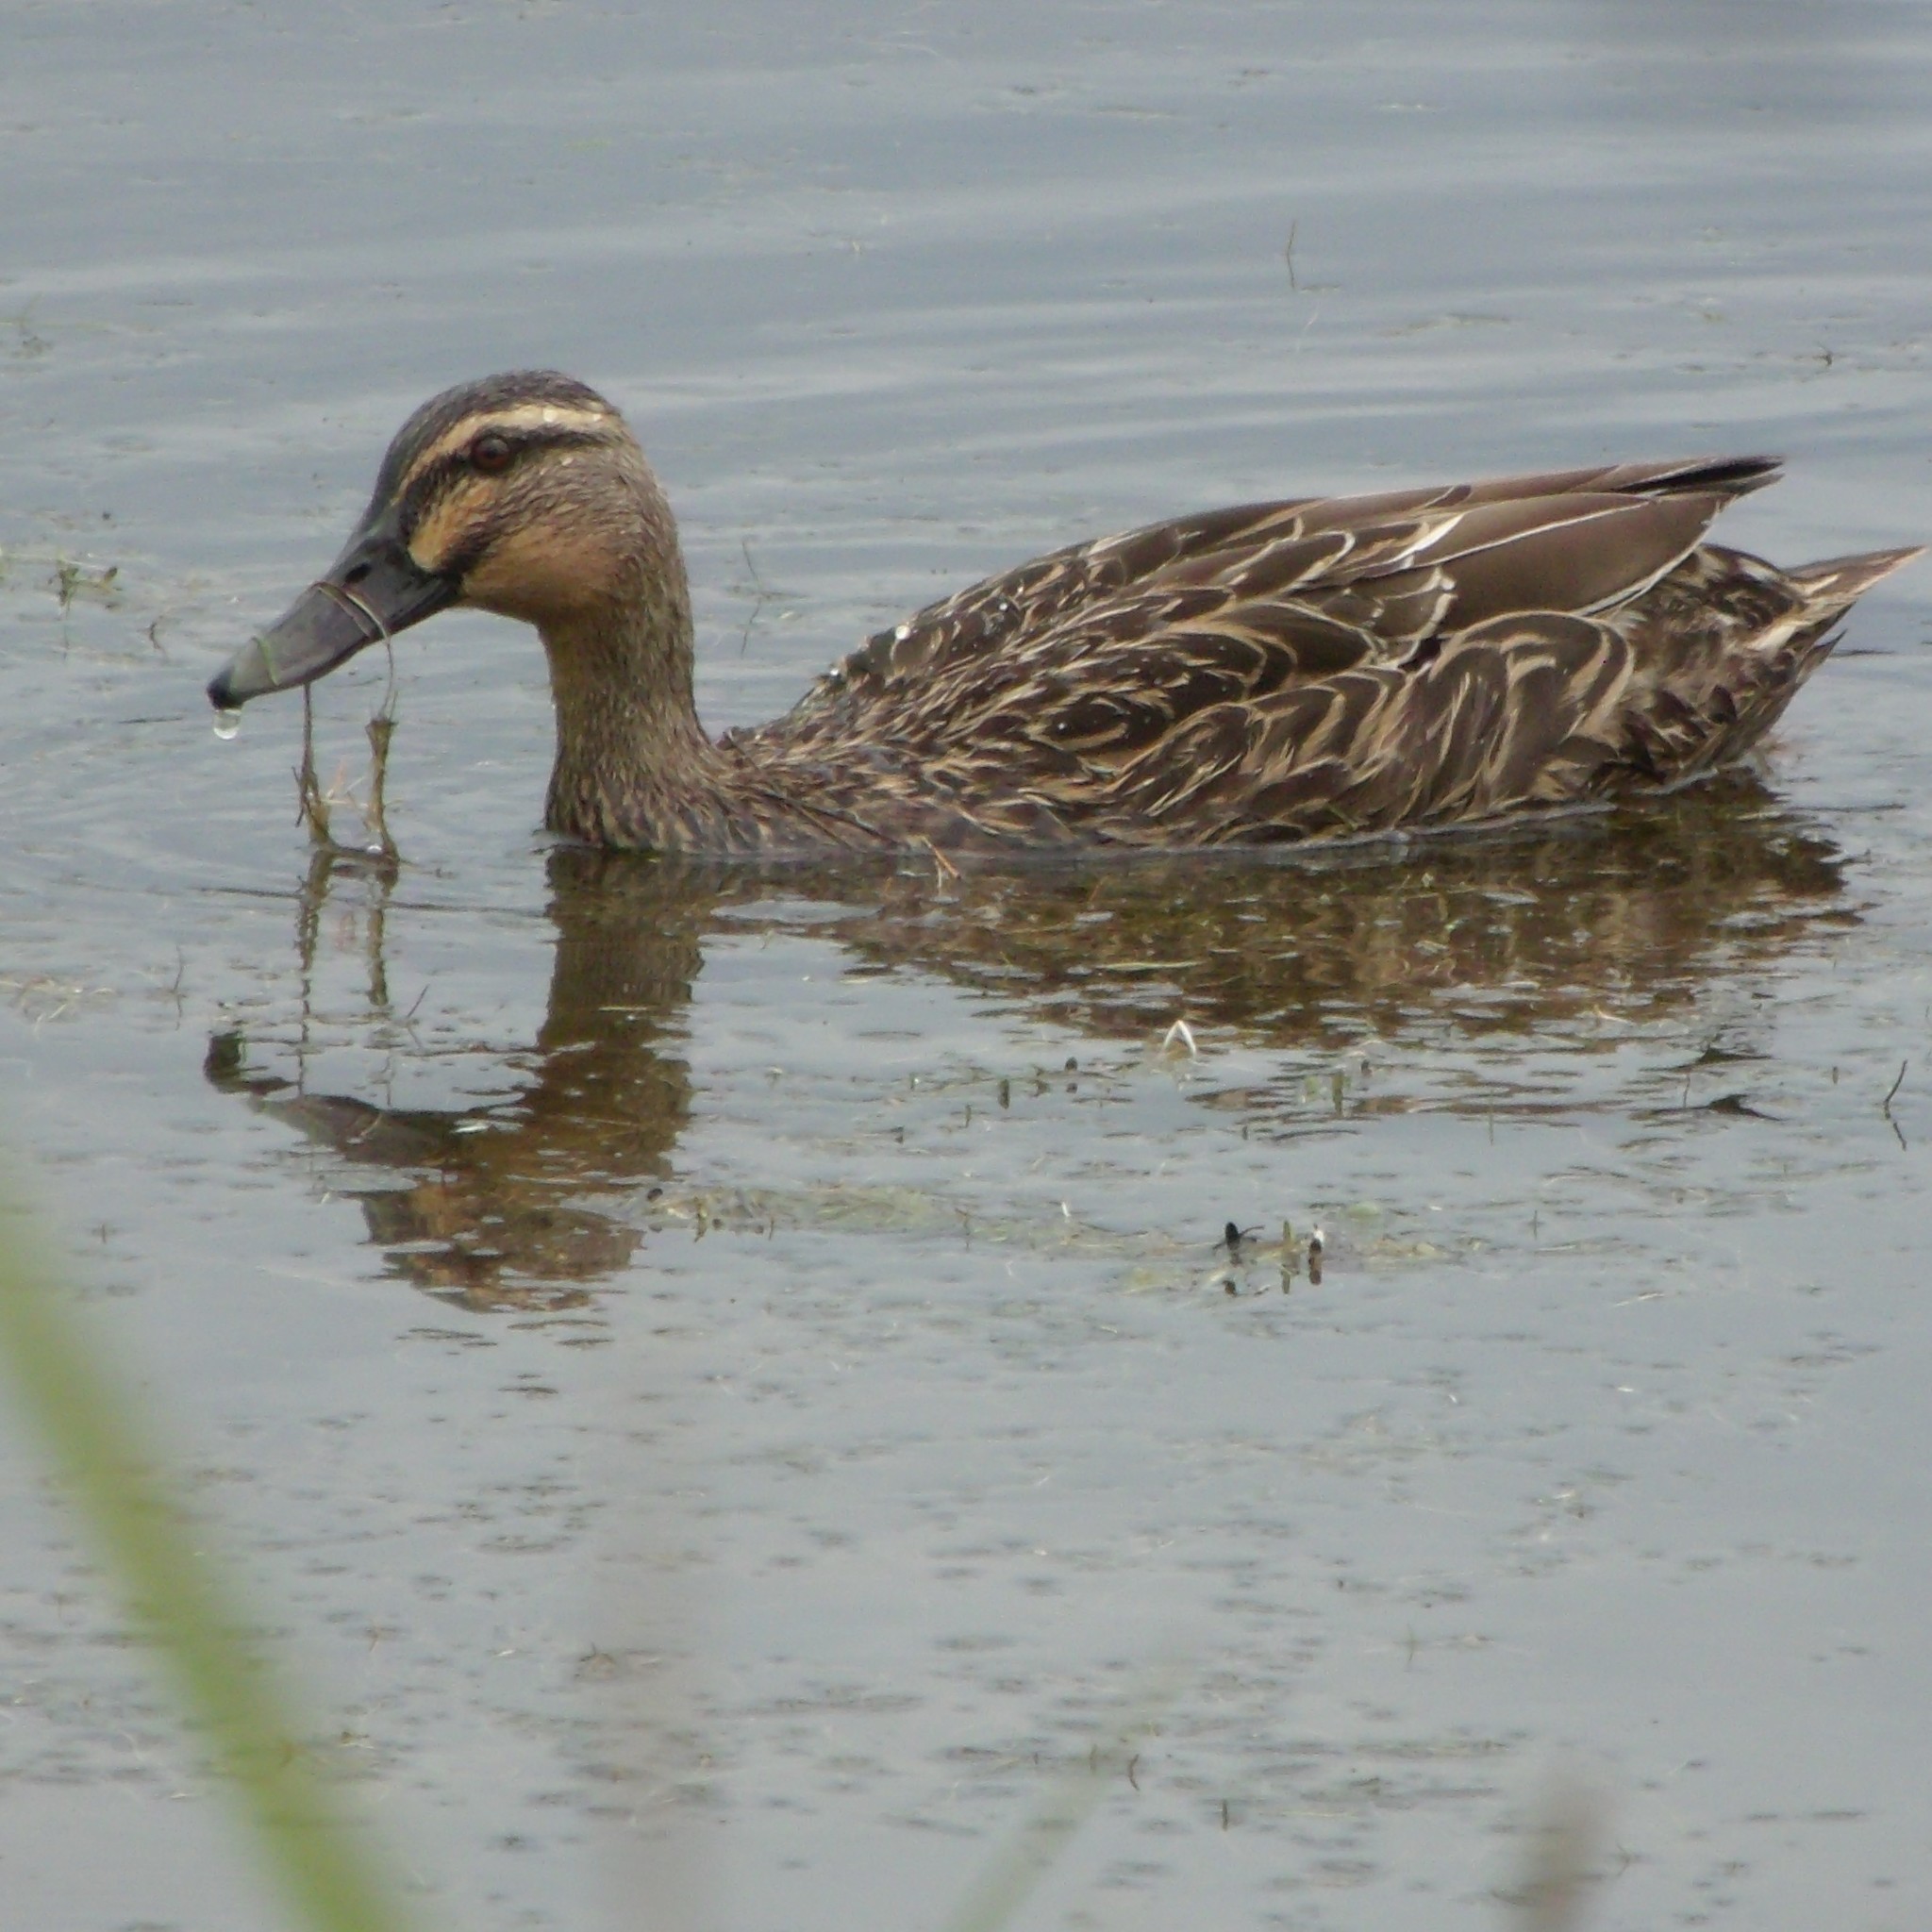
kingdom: Animalia
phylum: Chordata
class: Aves
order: Anseriformes
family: Anatidae
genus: Anas
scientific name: Anas
